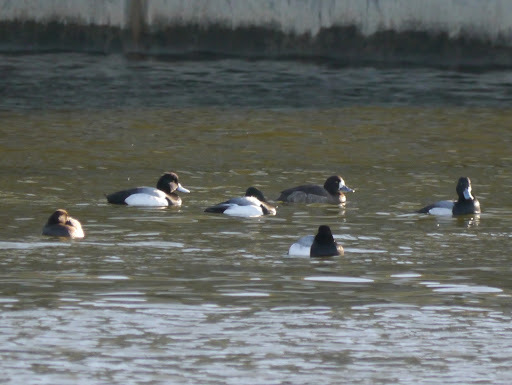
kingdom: Animalia
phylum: Chordata
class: Aves
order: Anseriformes
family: Anatidae
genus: Aythya
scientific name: Aythya marila
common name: Greater scaup
